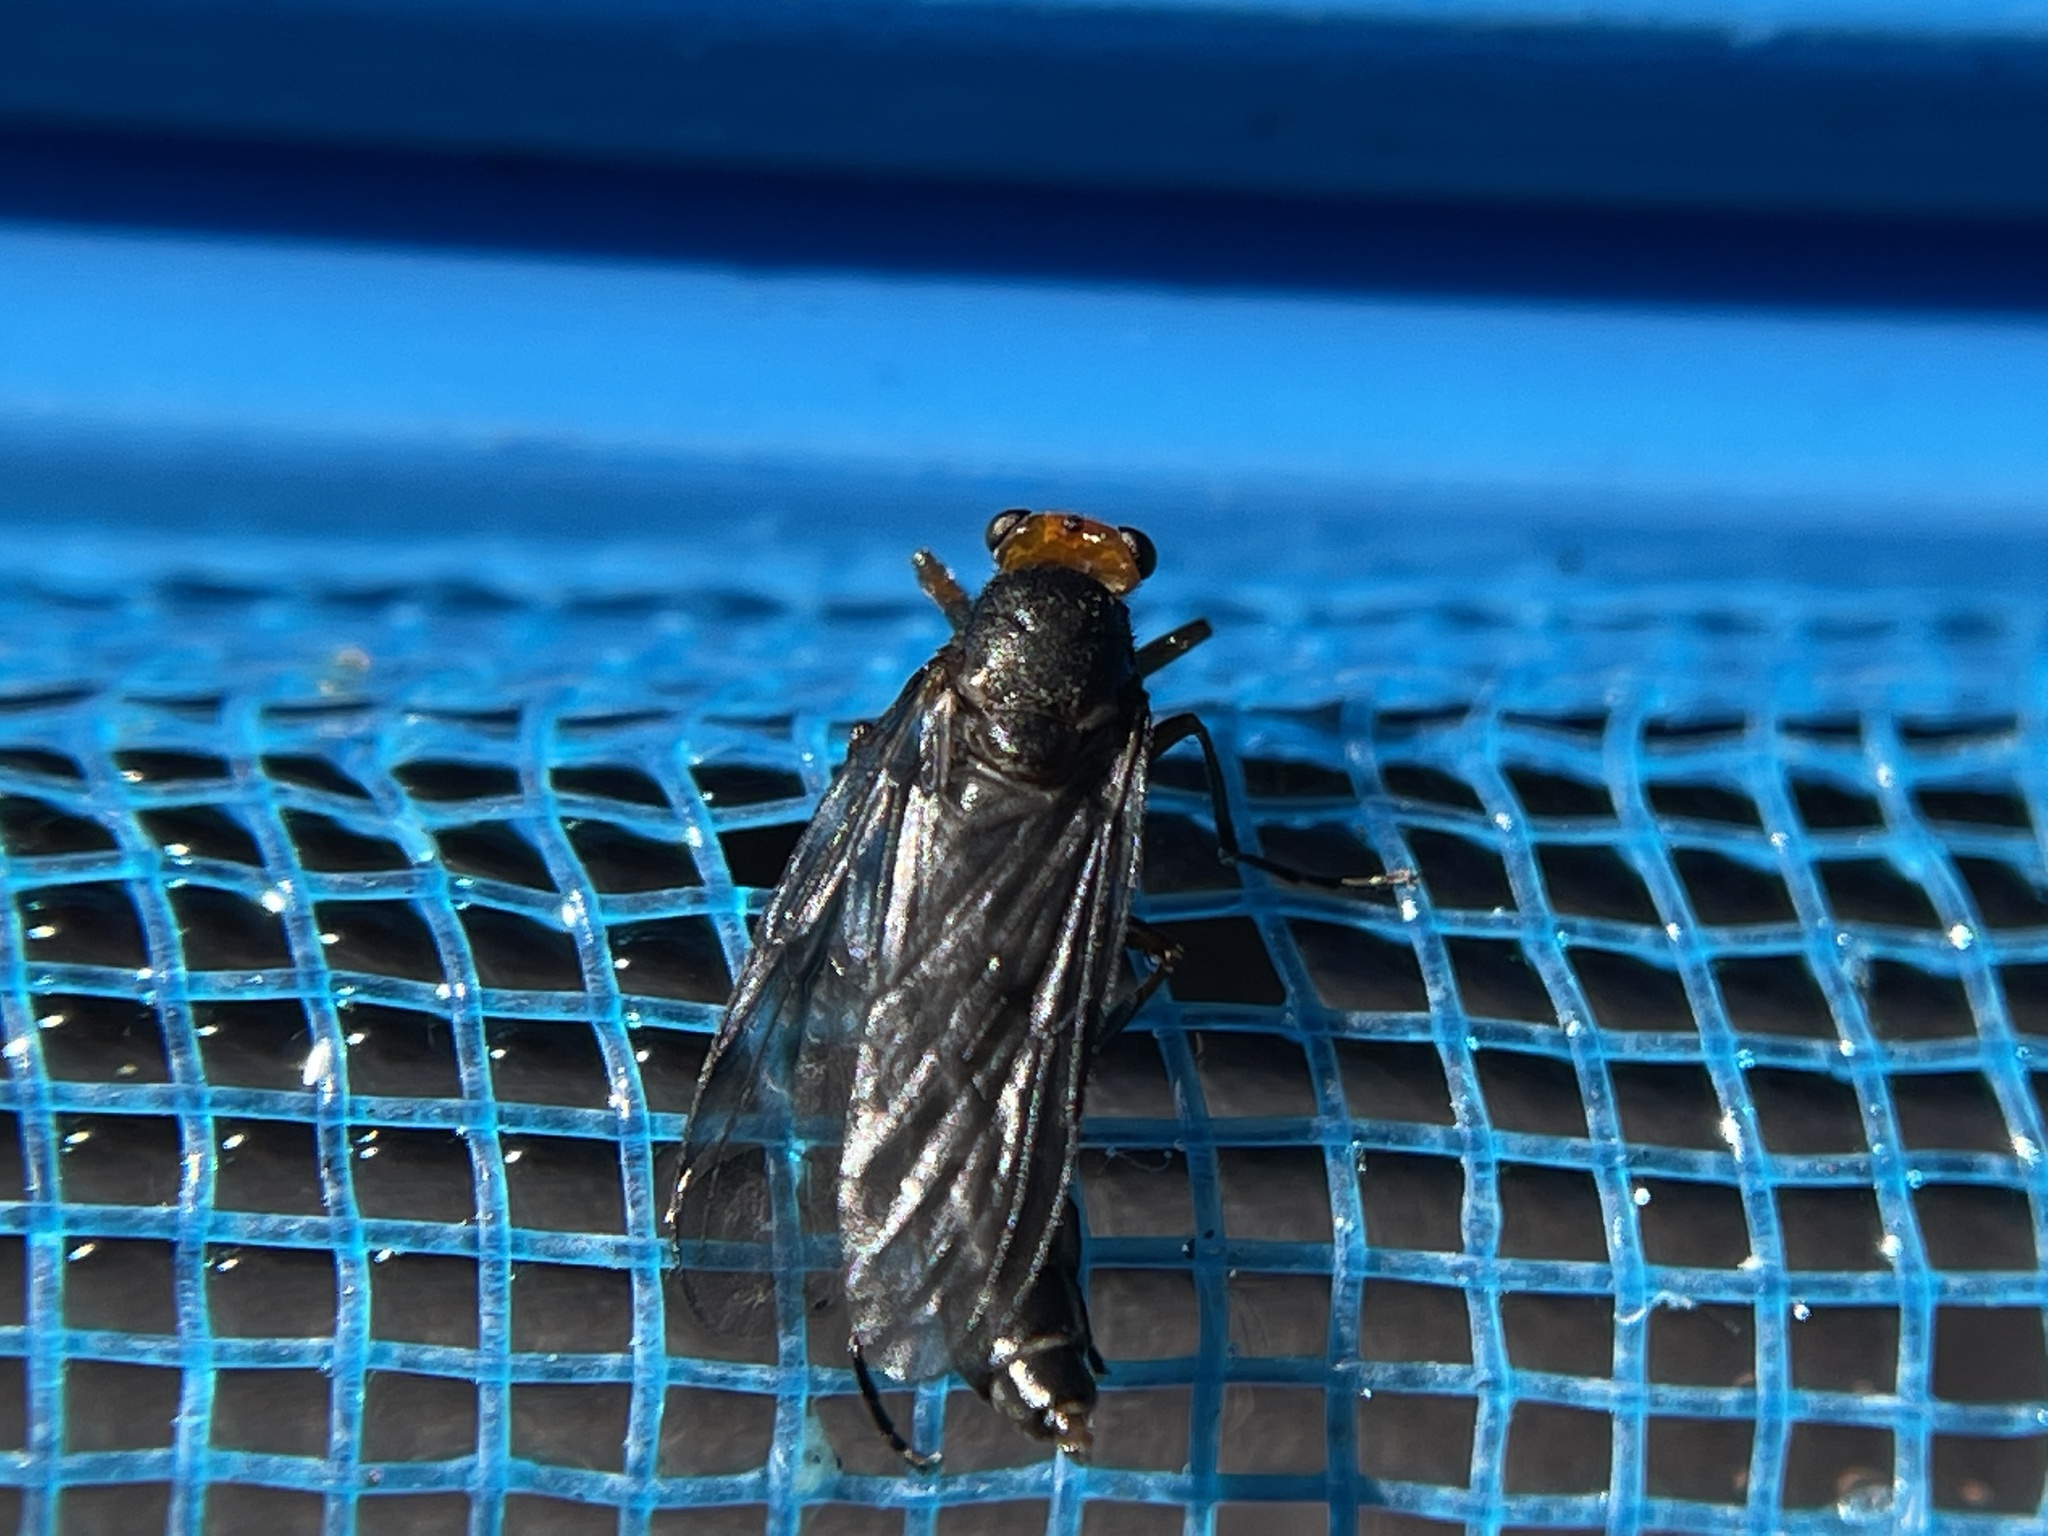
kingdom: Animalia
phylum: Arthropoda
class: Insecta
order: Diptera
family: Stratiomyidae
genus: Inopus
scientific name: Inopus rubriceps
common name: Soldier fly
